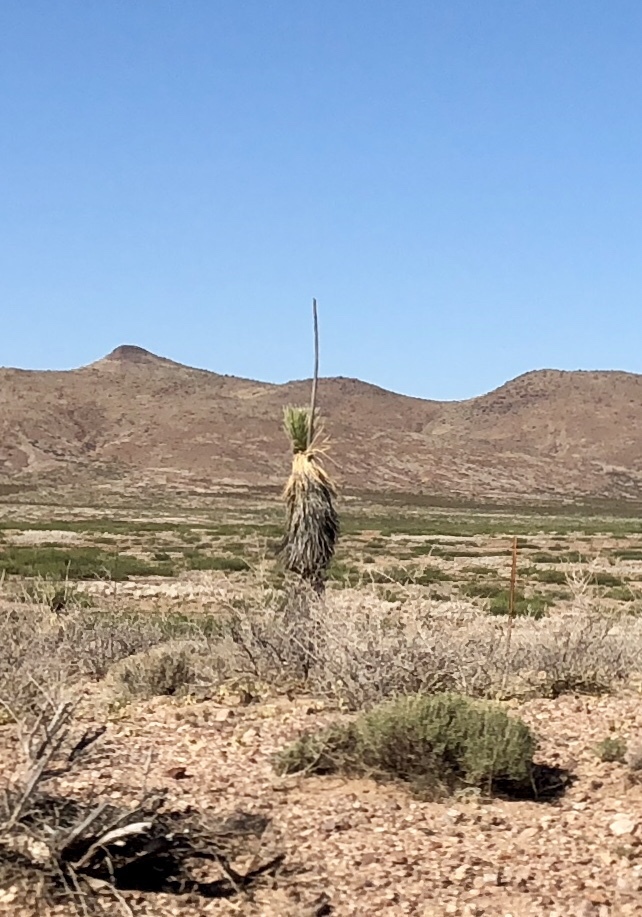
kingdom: Plantae
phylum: Tracheophyta
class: Liliopsida
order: Asparagales
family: Asparagaceae
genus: Yucca
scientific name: Yucca elata
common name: Palmella
